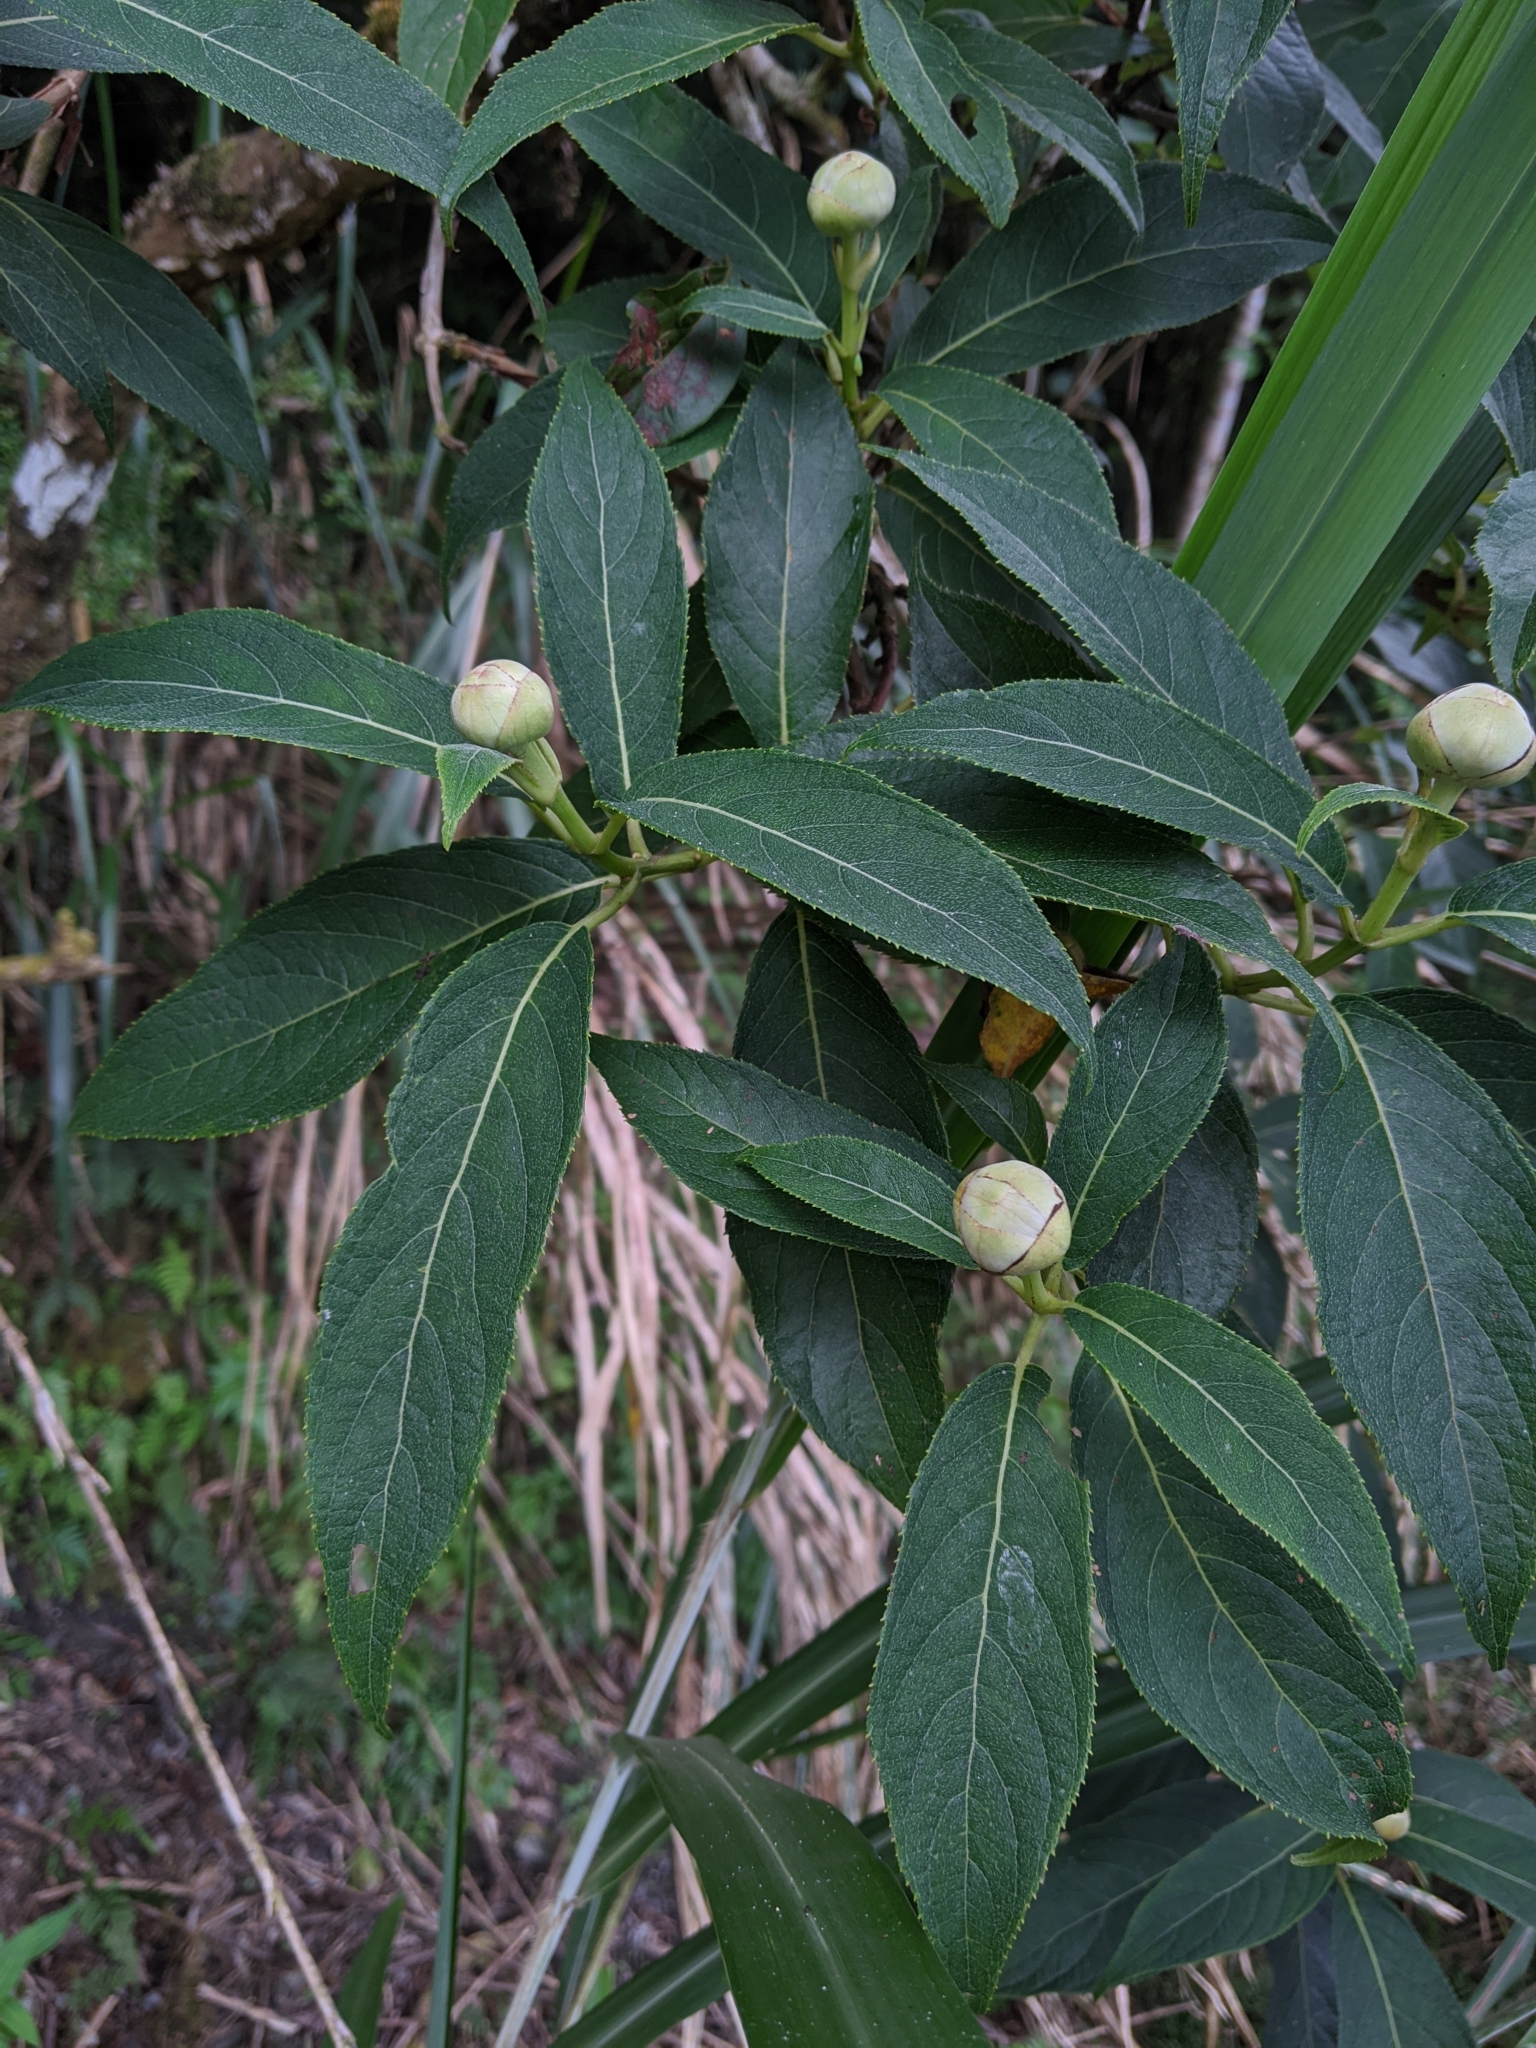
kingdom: Plantae
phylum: Tracheophyta
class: Magnoliopsida
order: Cornales
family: Hydrangeaceae
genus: Hydrangea
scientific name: Hydrangea longifolia
